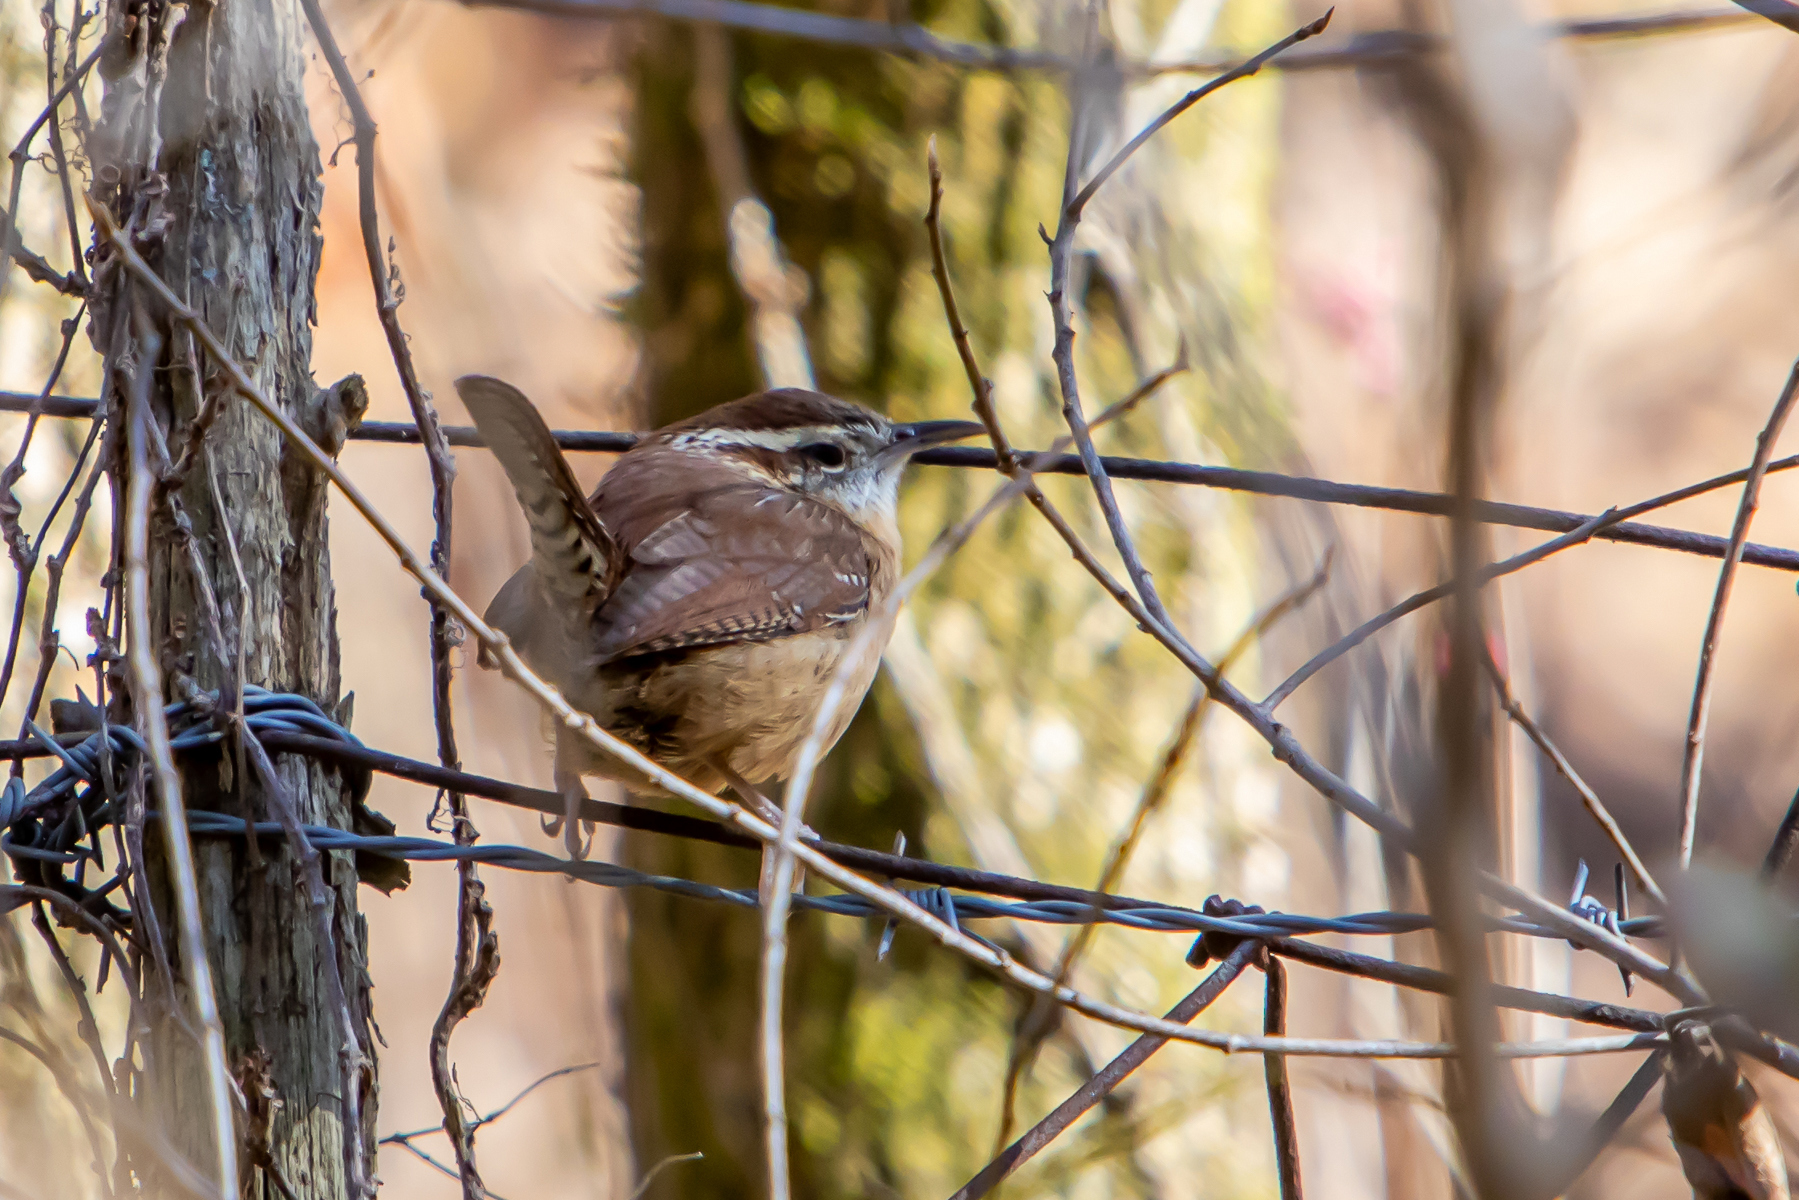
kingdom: Animalia
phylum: Chordata
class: Aves
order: Passeriformes
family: Troglodytidae
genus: Thryothorus
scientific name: Thryothorus ludovicianus
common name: Carolina wren
